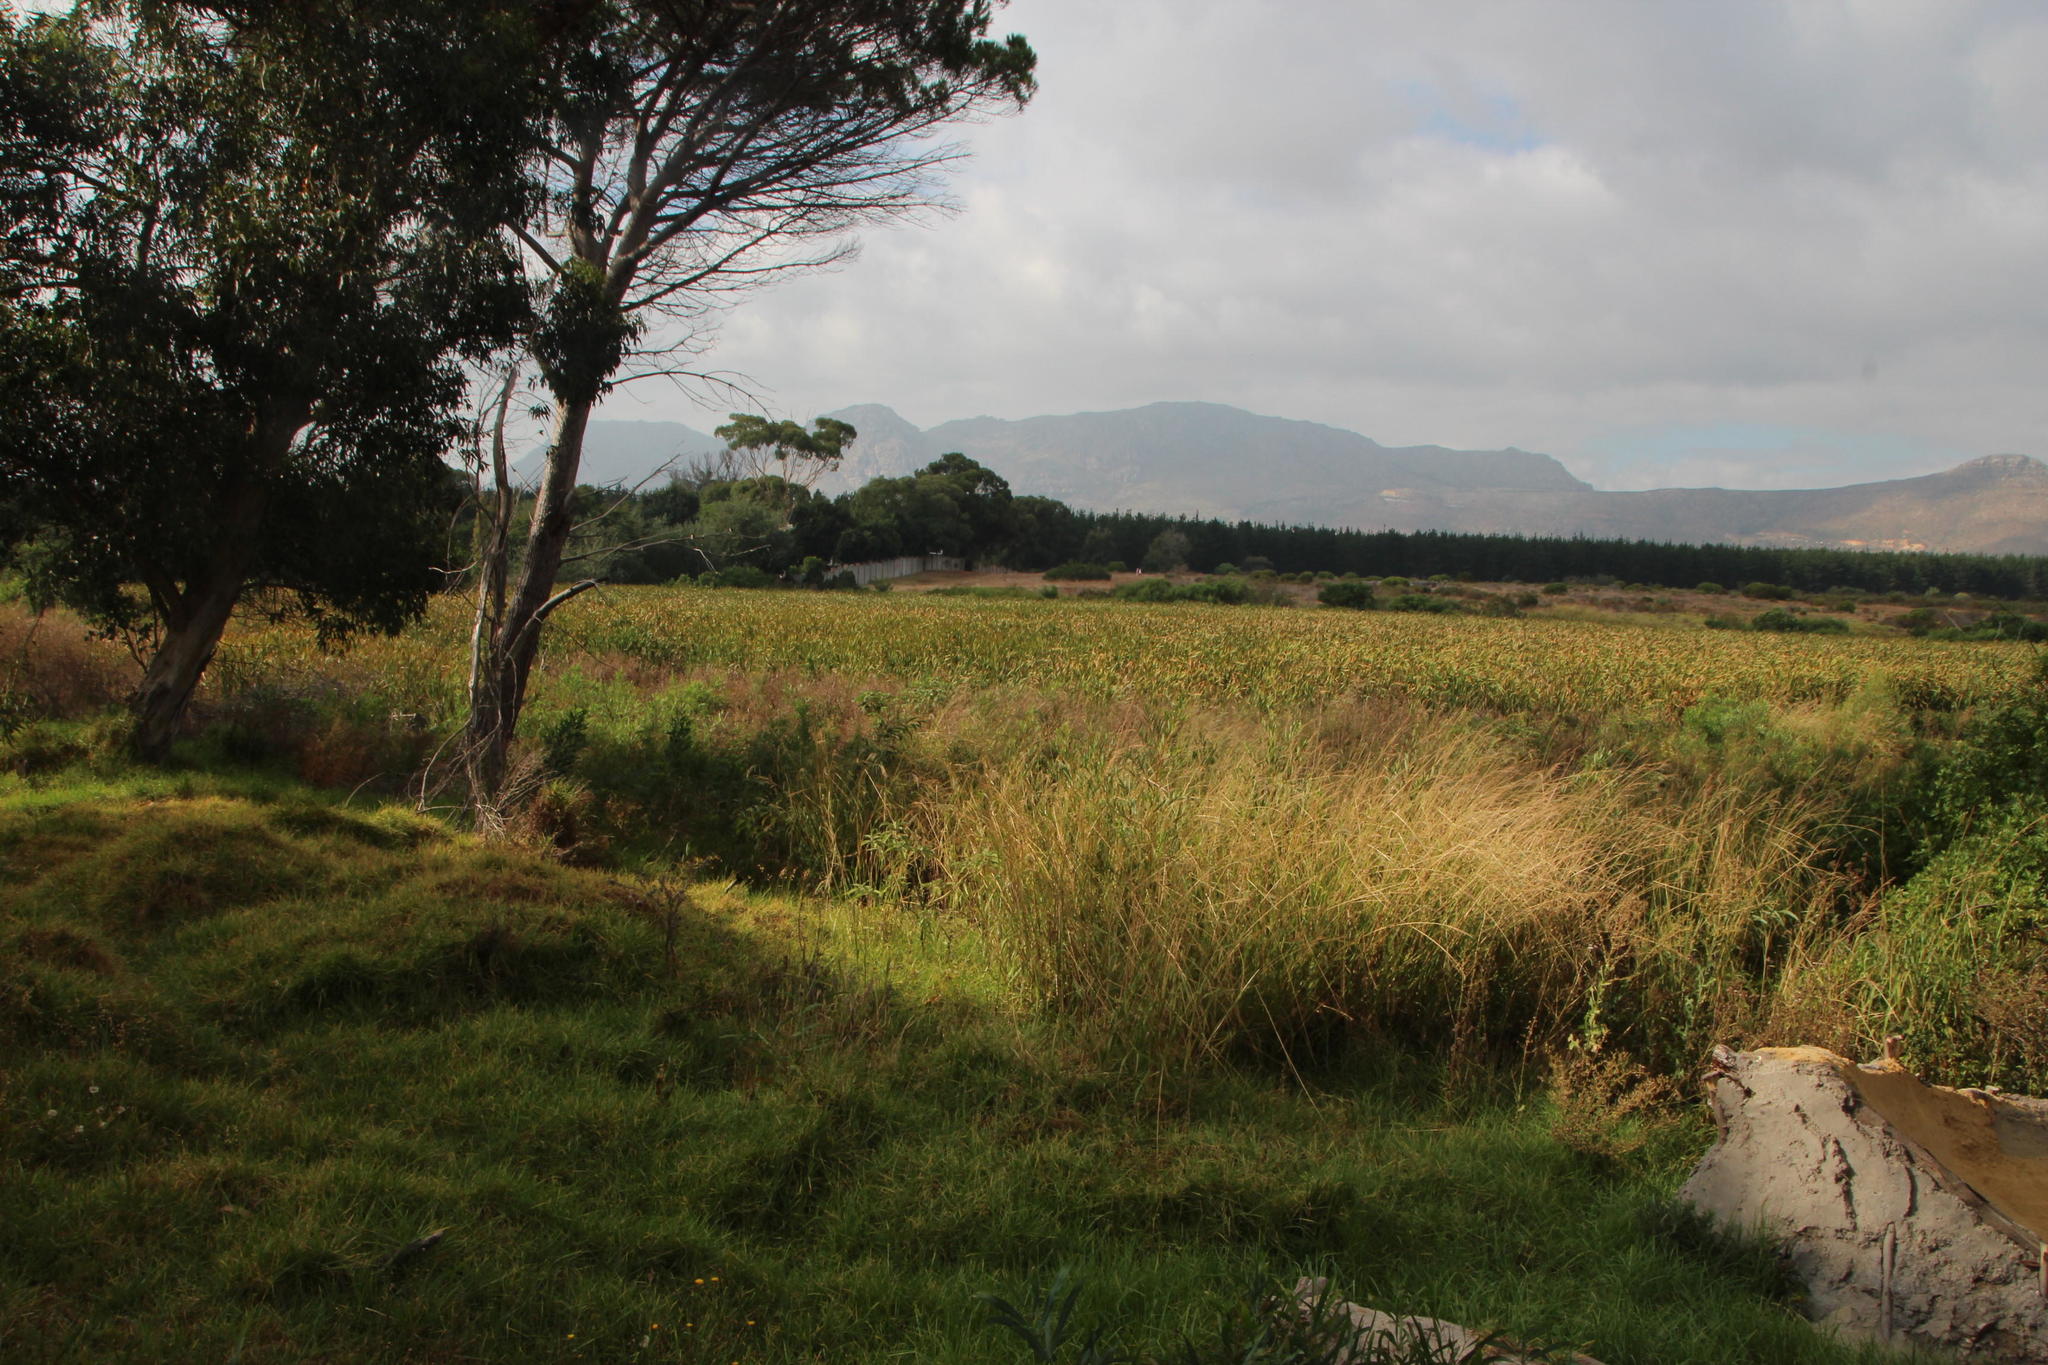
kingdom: Plantae
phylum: Tracheophyta
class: Liliopsida
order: Poales
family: Typhaceae
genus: Typha
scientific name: Typha capensis
